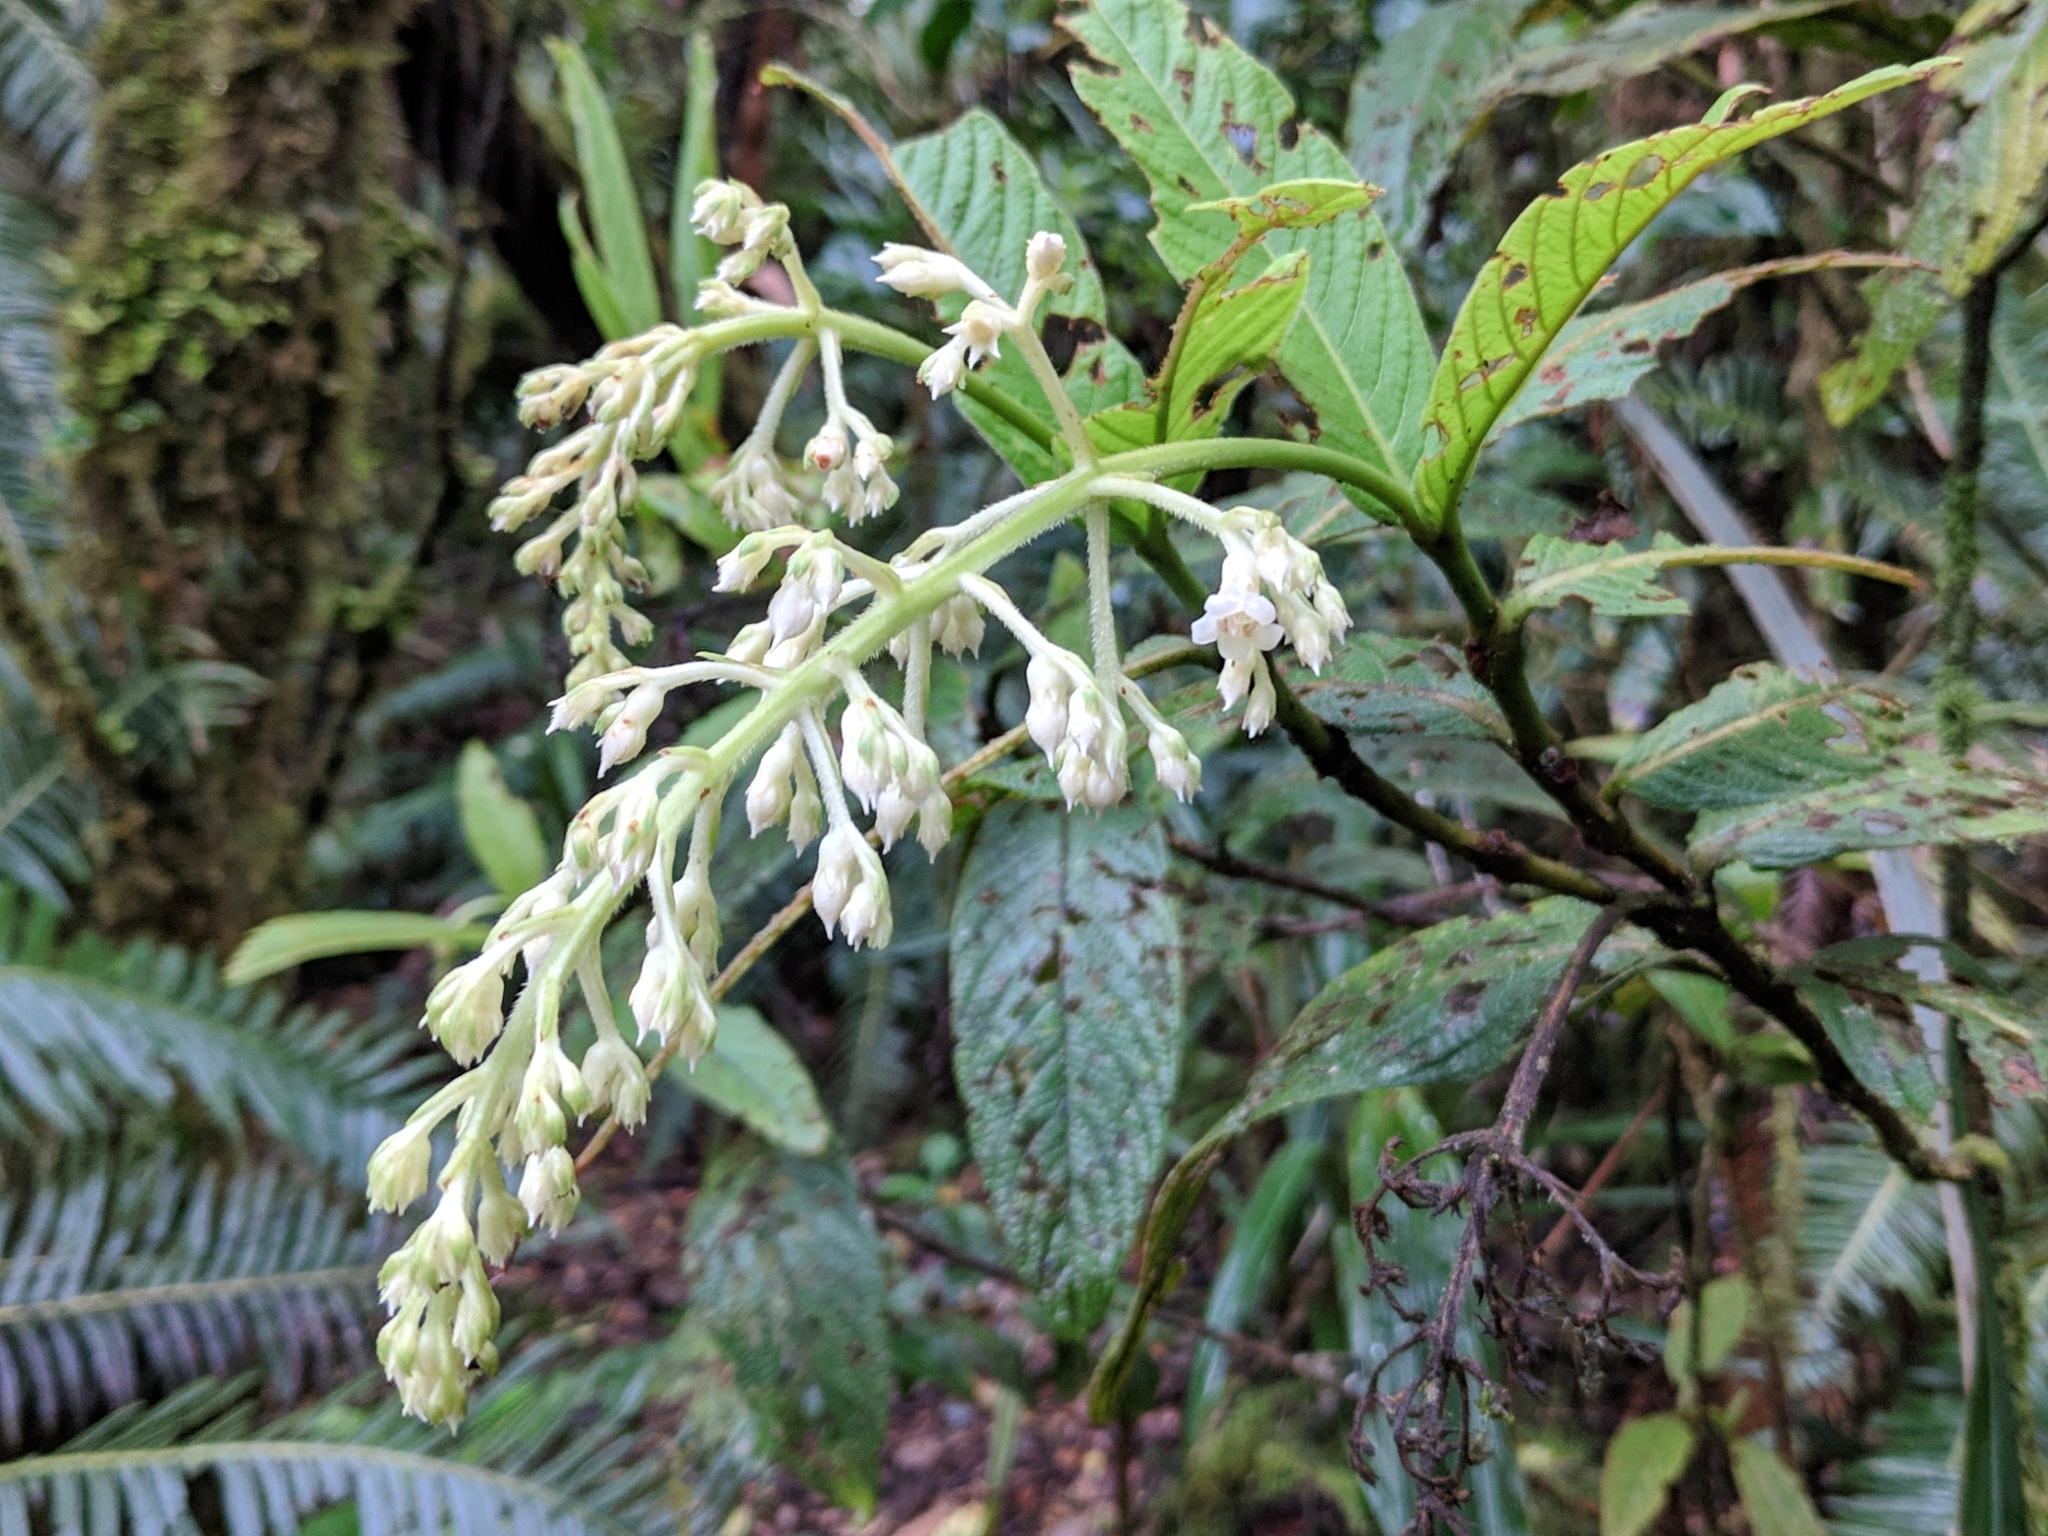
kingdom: Plantae
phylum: Tracheophyta
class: Magnoliopsida
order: Gentianales
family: Rubiaceae
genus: Bertiera
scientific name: Bertiera rufa
